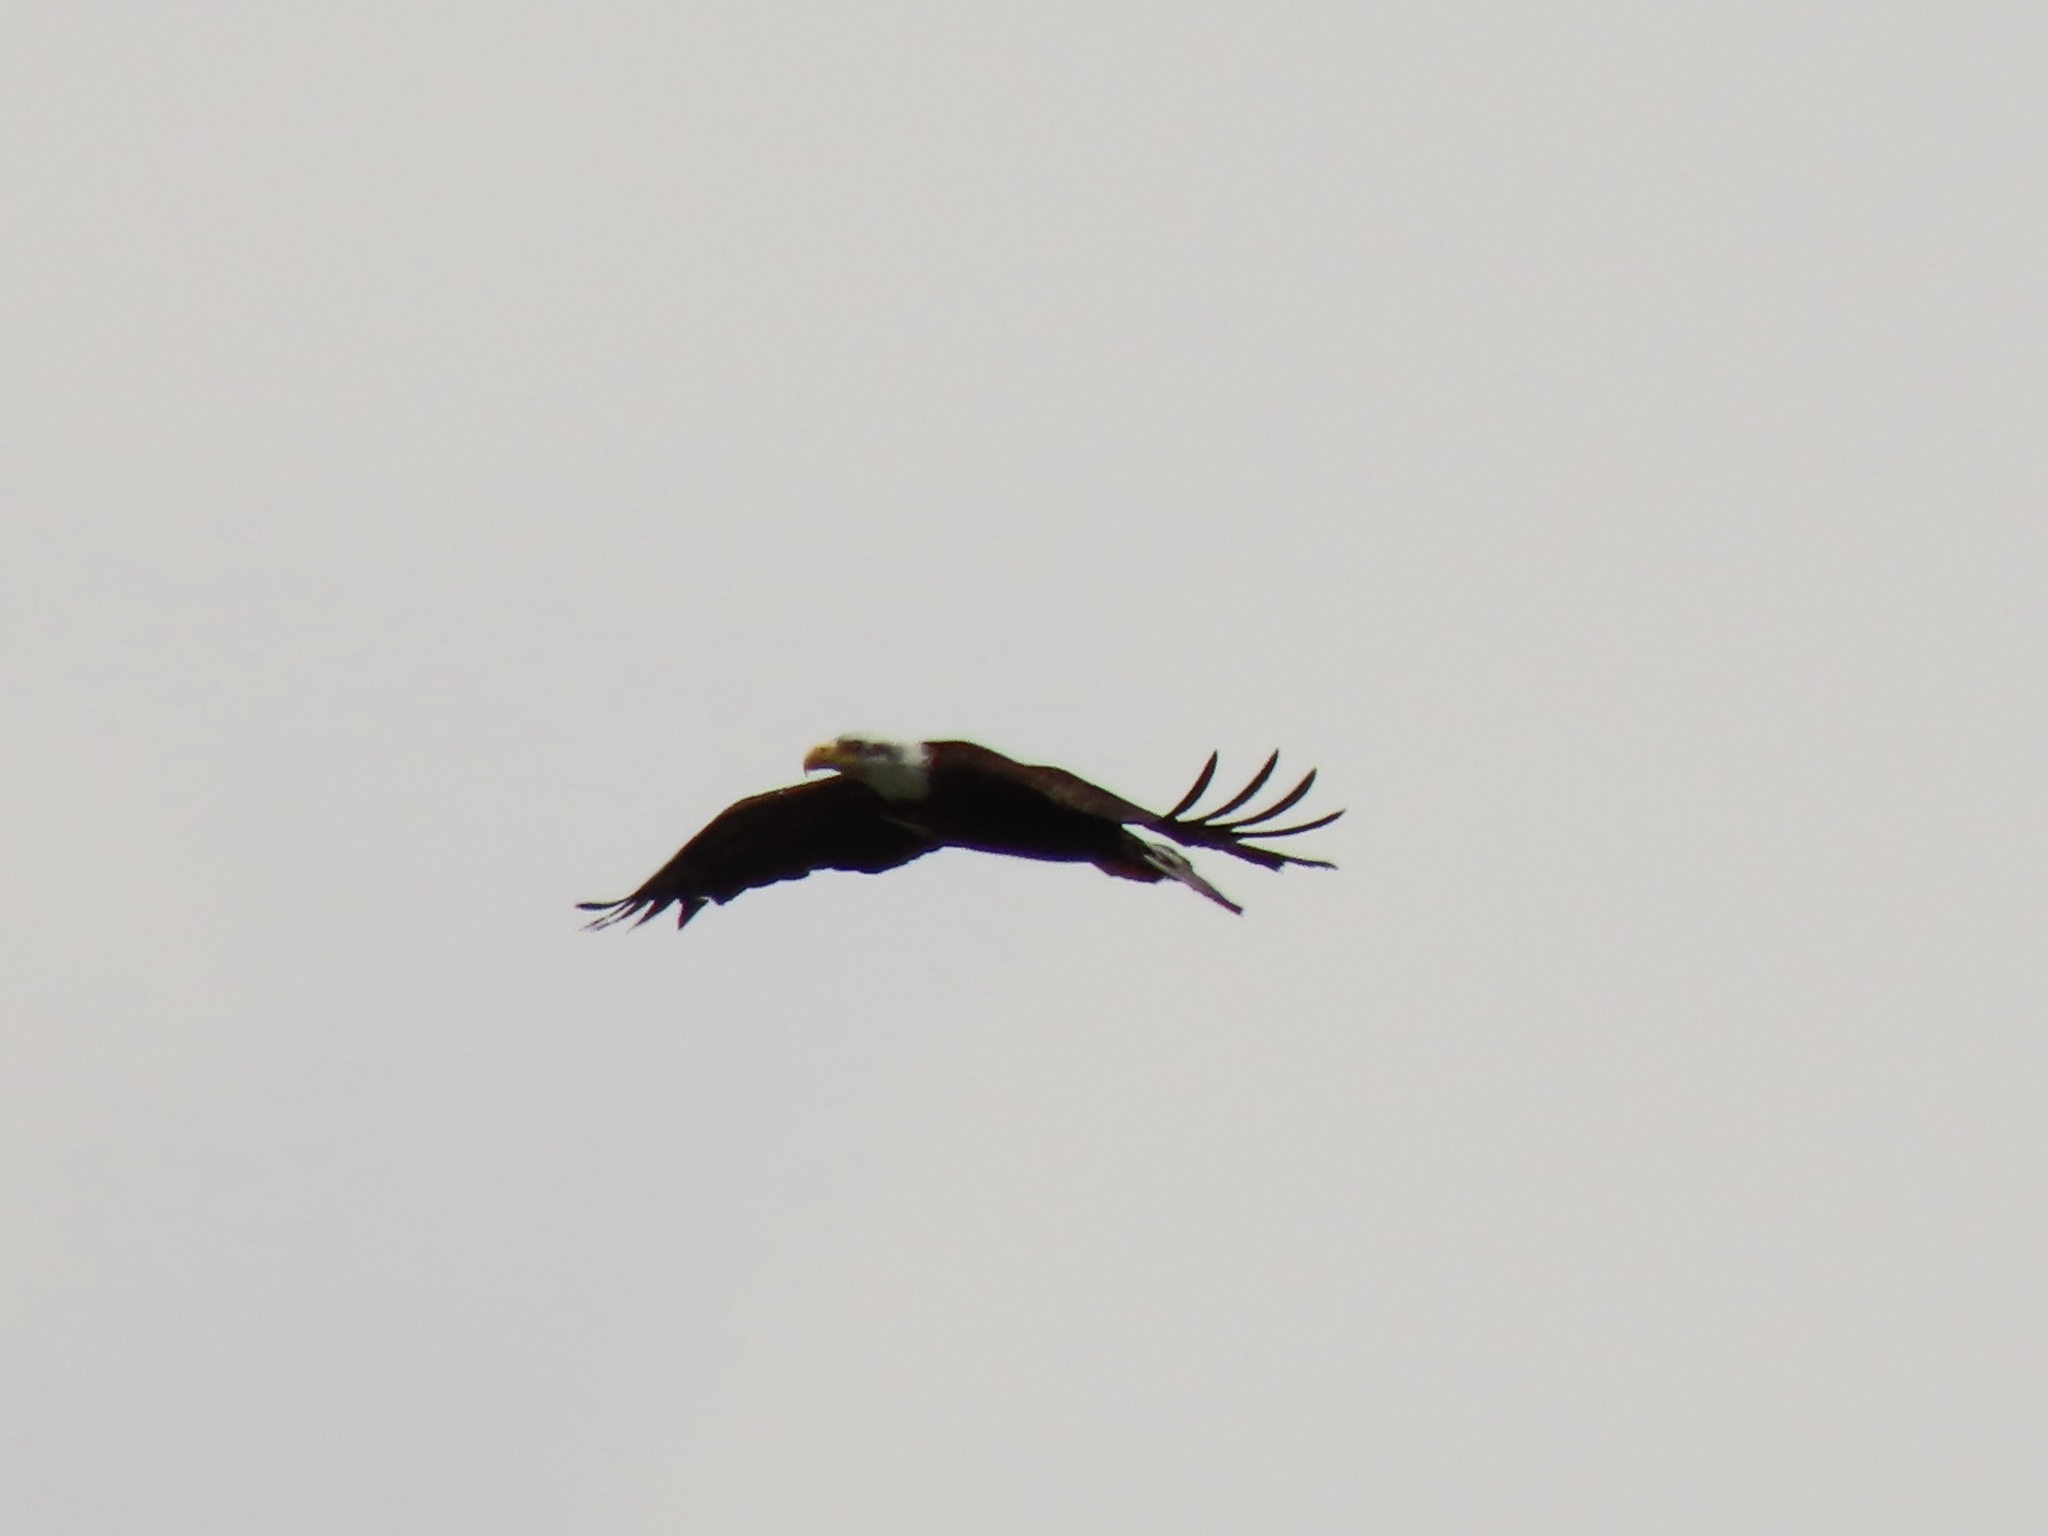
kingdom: Animalia
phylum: Chordata
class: Aves
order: Accipitriformes
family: Accipitridae
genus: Haliaeetus
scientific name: Haliaeetus leucocephalus
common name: Bald eagle
